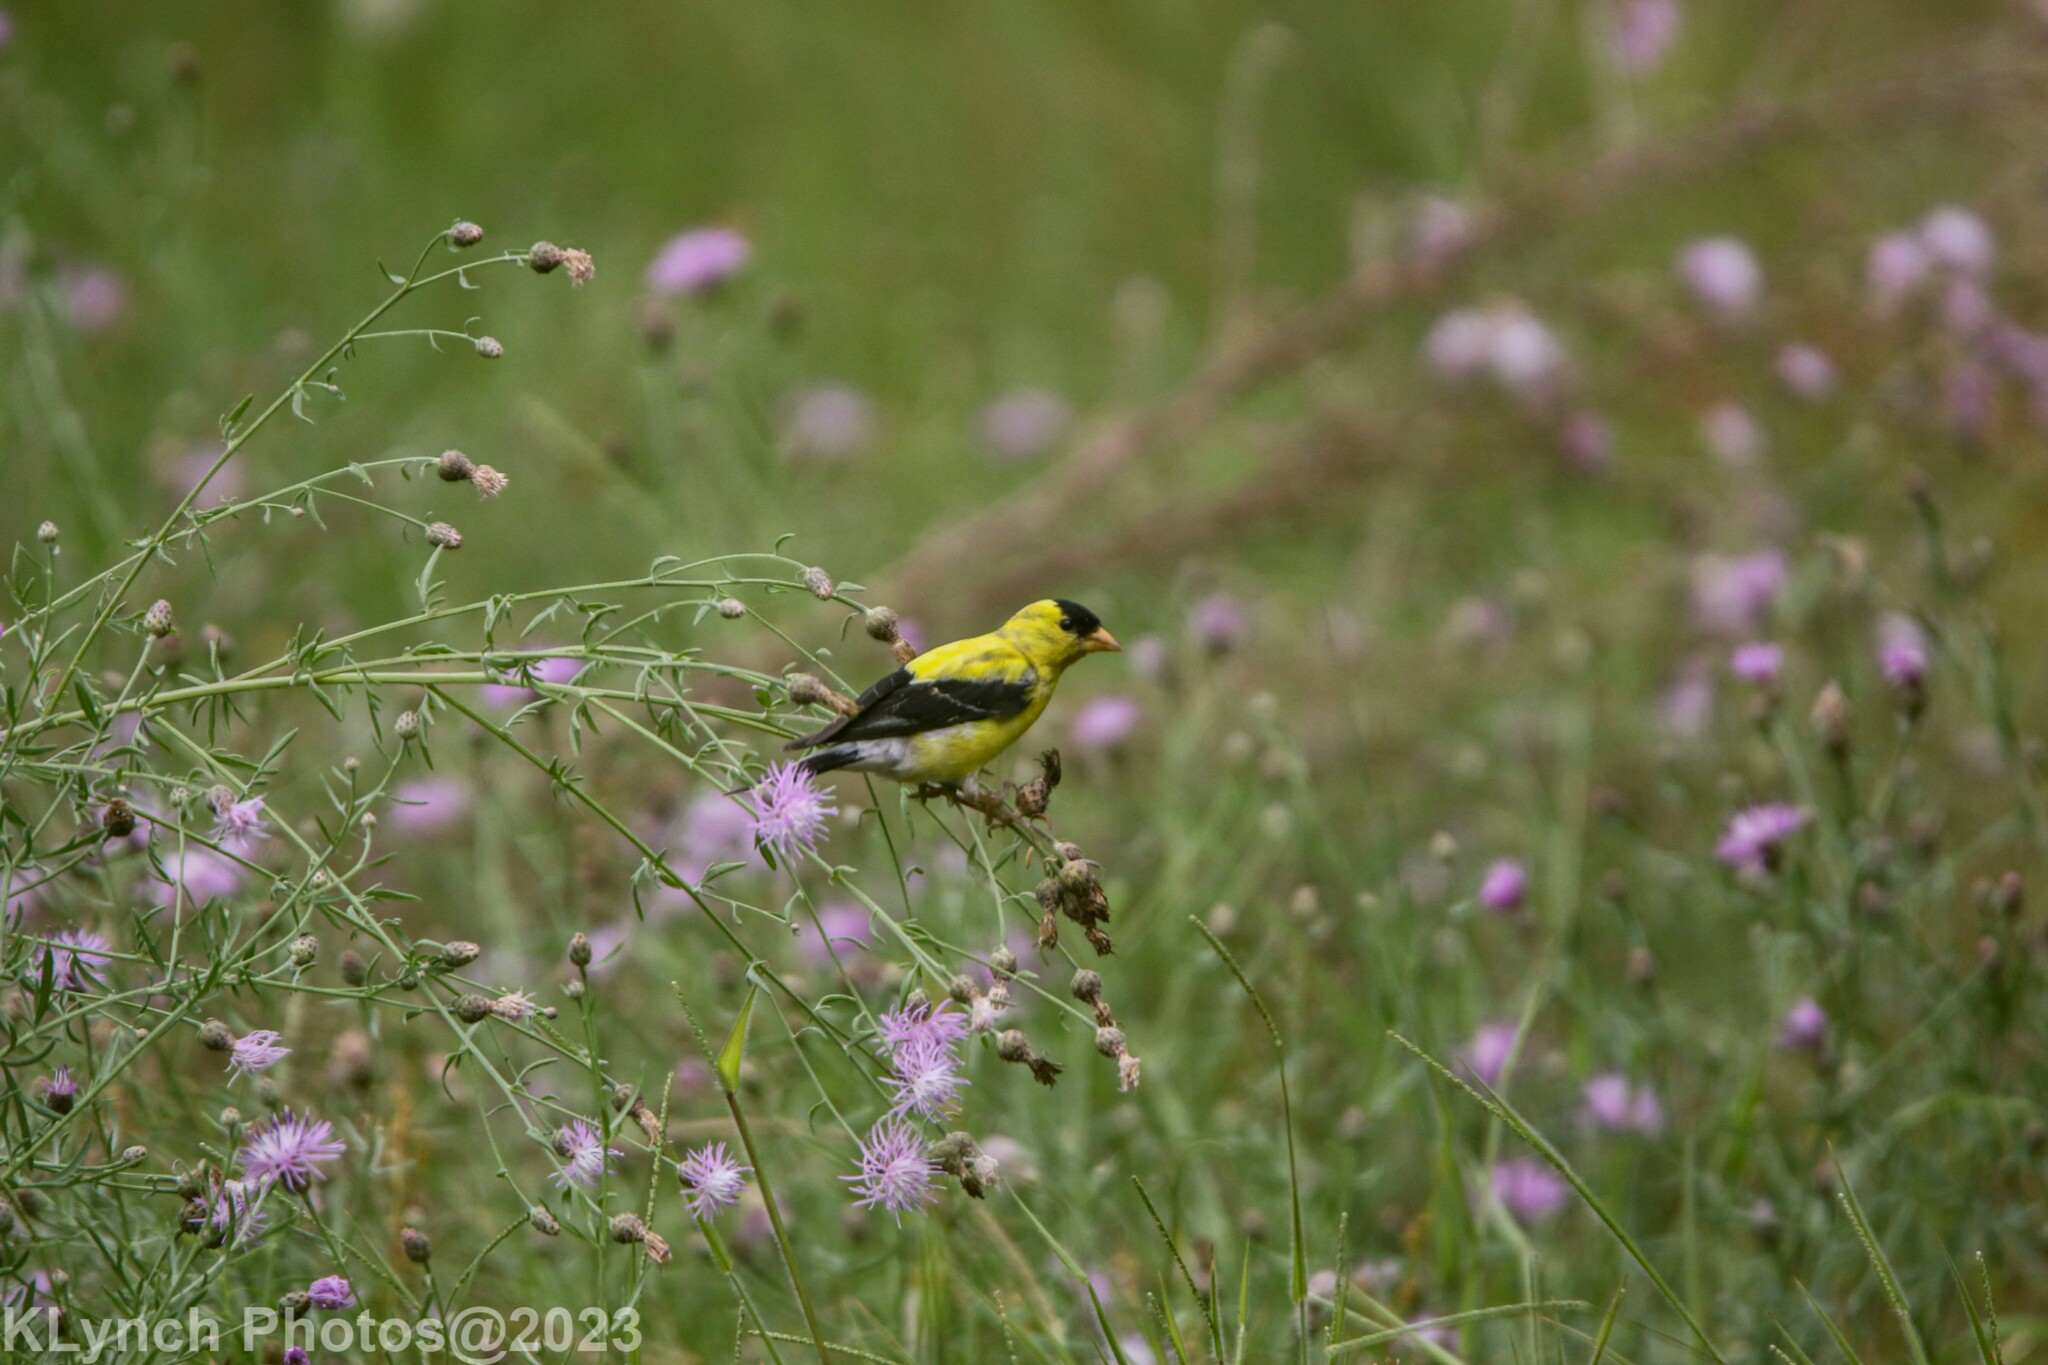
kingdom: Animalia
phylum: Chordata
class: Aves
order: Passeriformes
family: Fringillidae
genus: Spinus
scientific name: Spinus tristis
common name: American goldfinch
